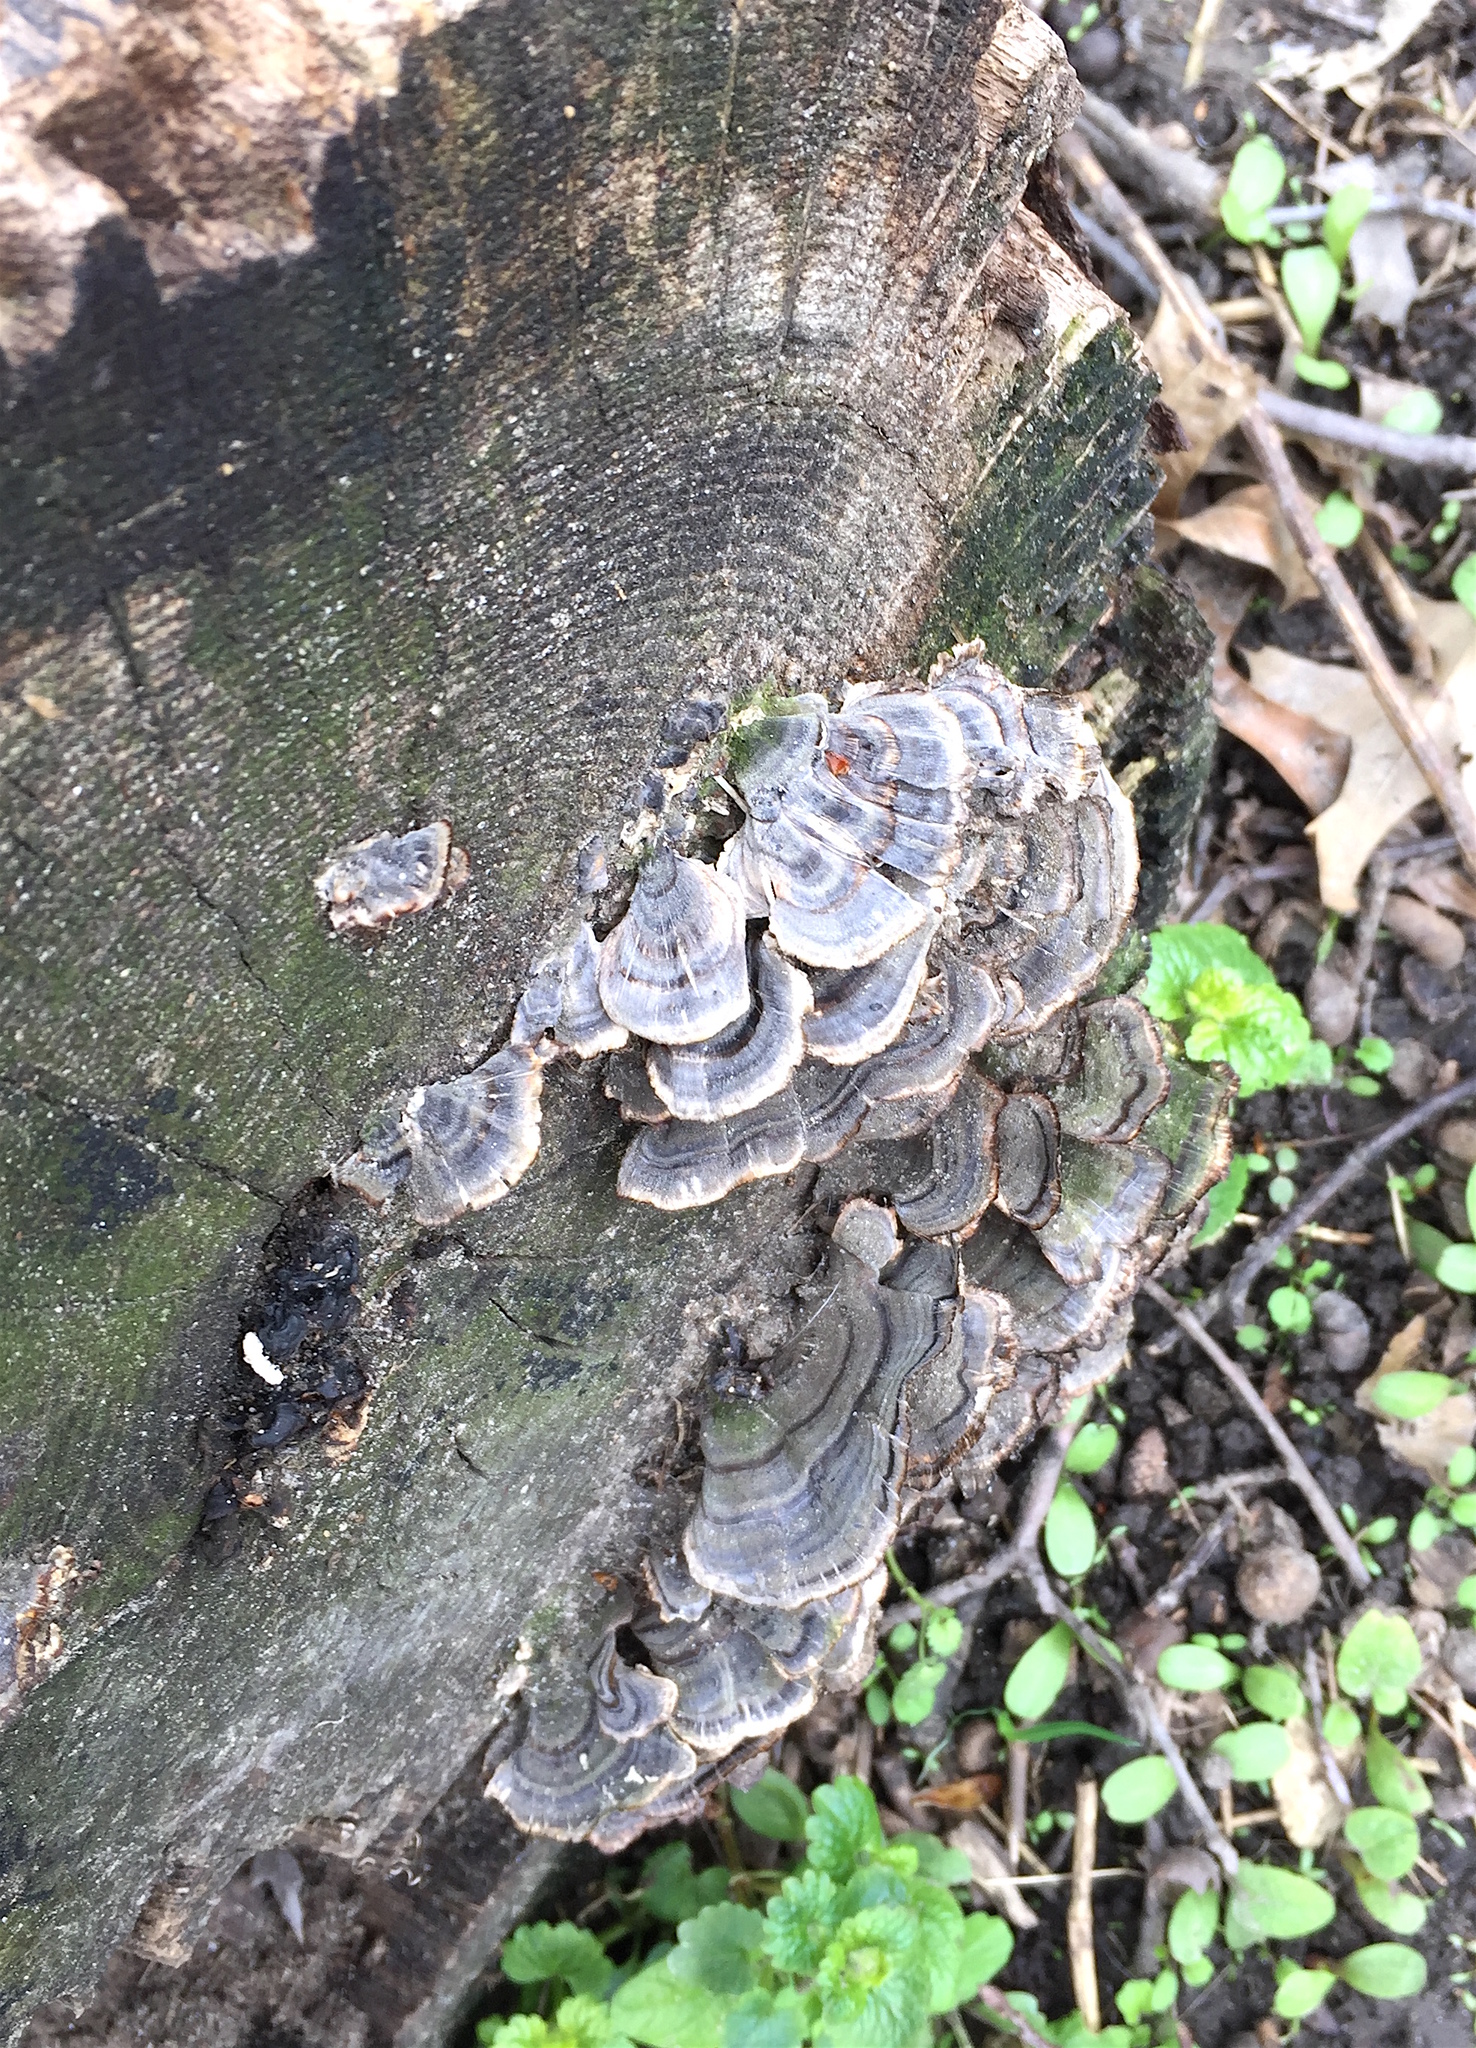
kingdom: Fungi
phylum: Basidiomycota
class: Agaricomycetes
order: Polyporales
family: Polyporaceae
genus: Trametes
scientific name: Trametes versicolor
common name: Turkeytail
